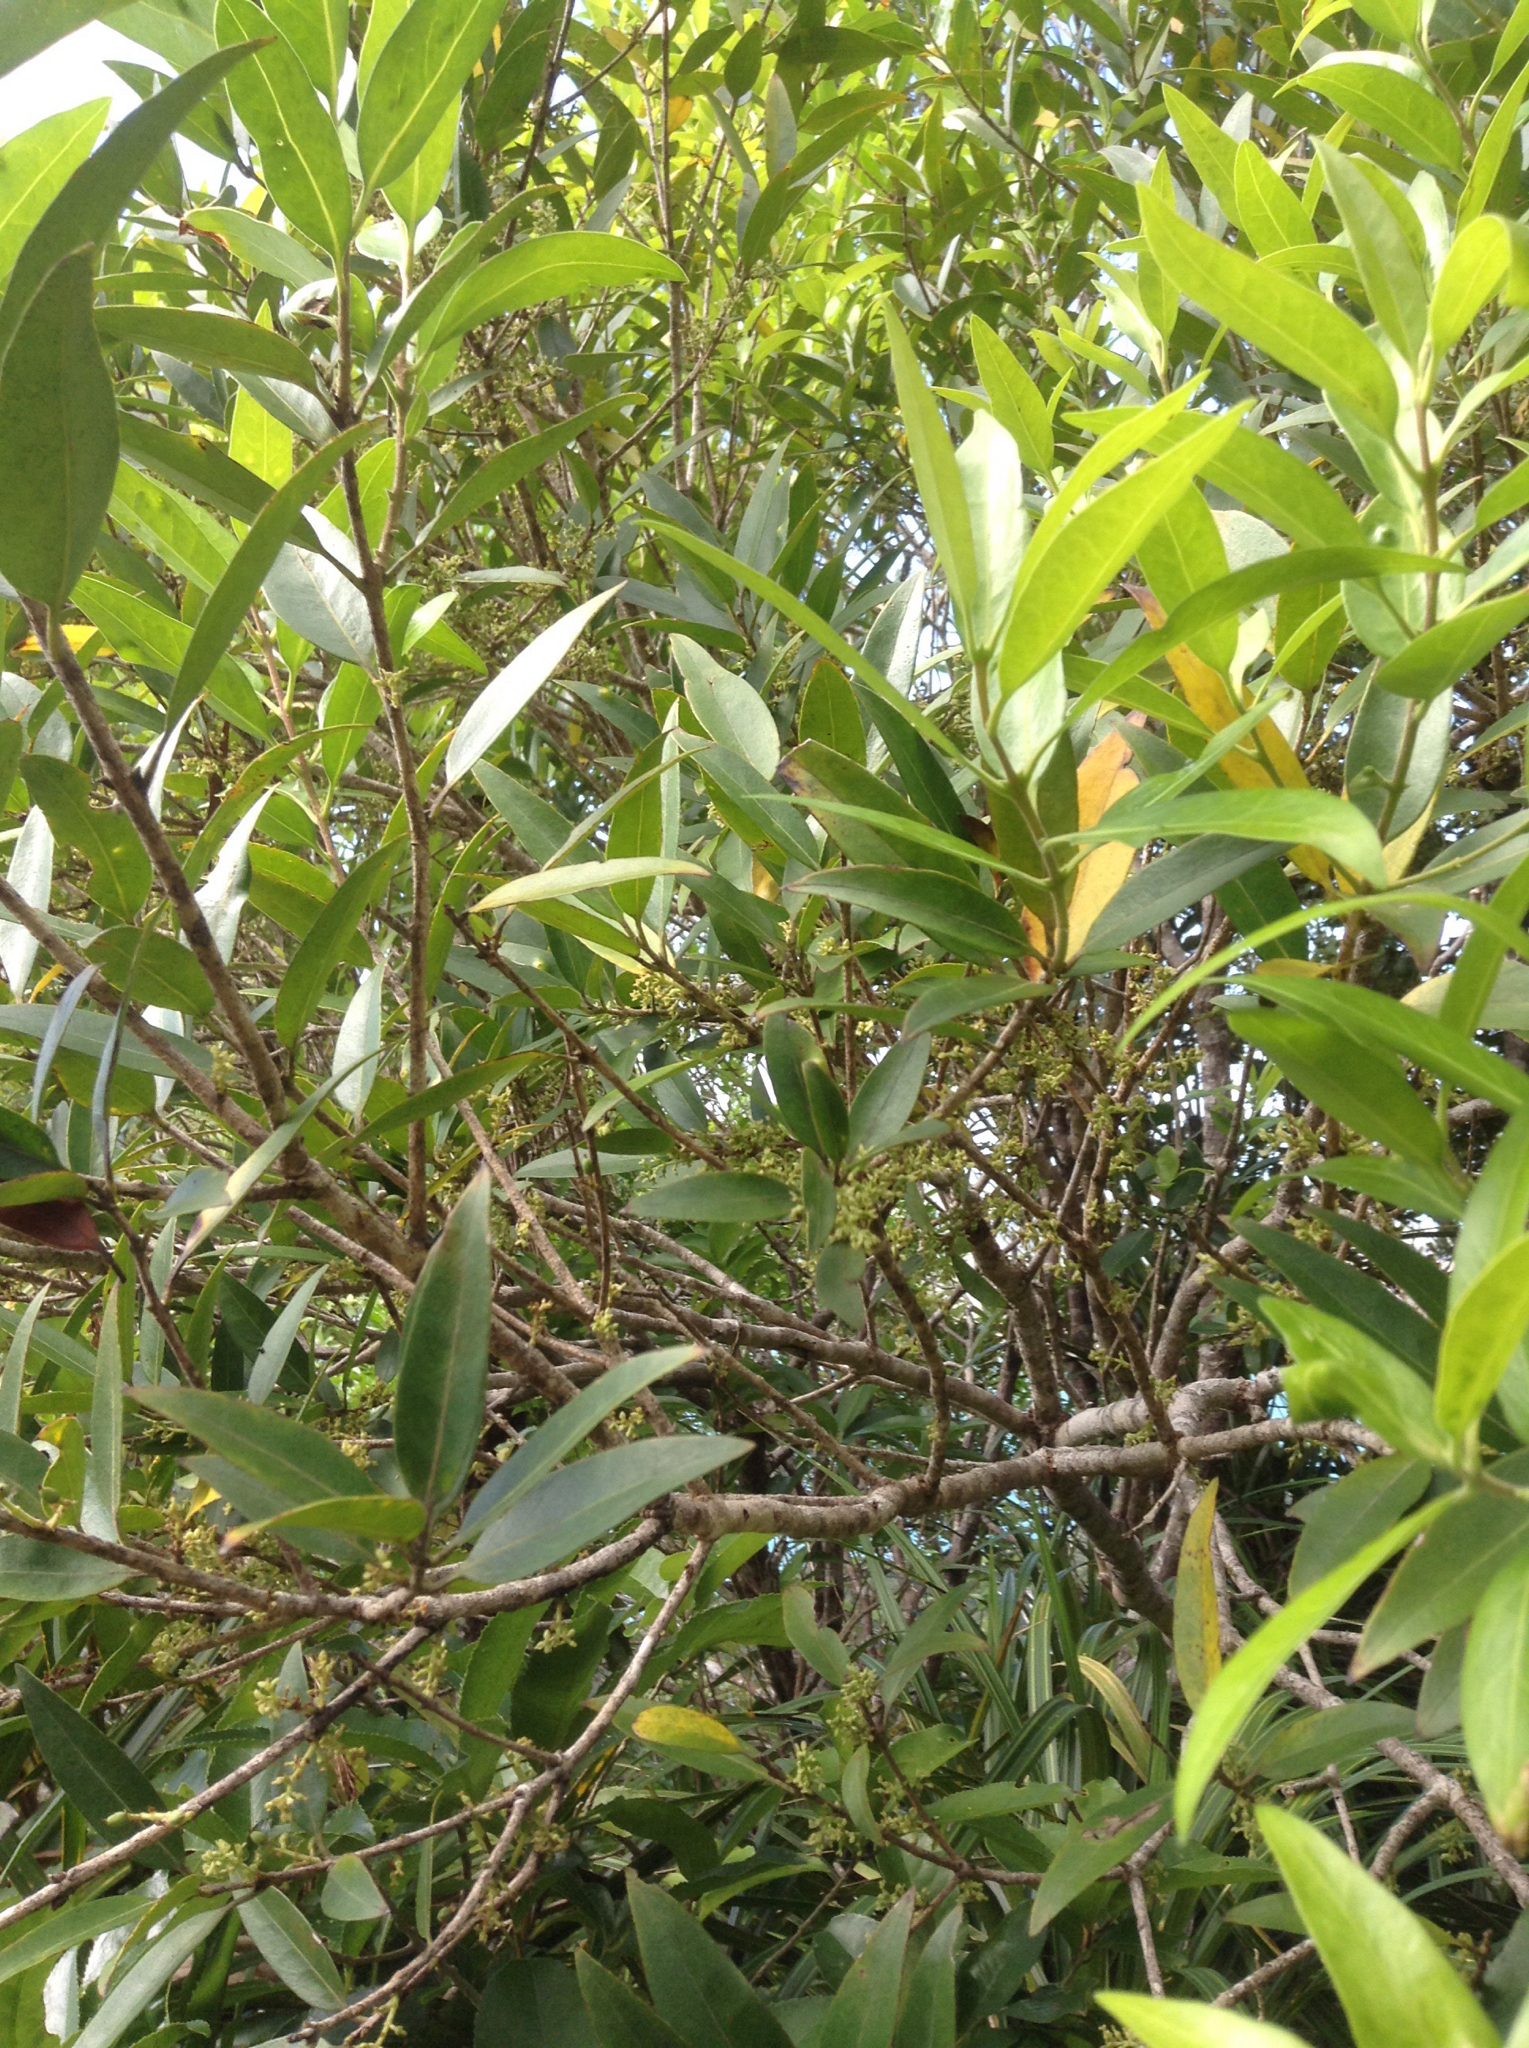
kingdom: Plantae
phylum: Tracheophyta
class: Magnoliopsida
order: Lamiales
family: Oleaceae
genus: Nestegis
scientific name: Nestegis lanceolata
